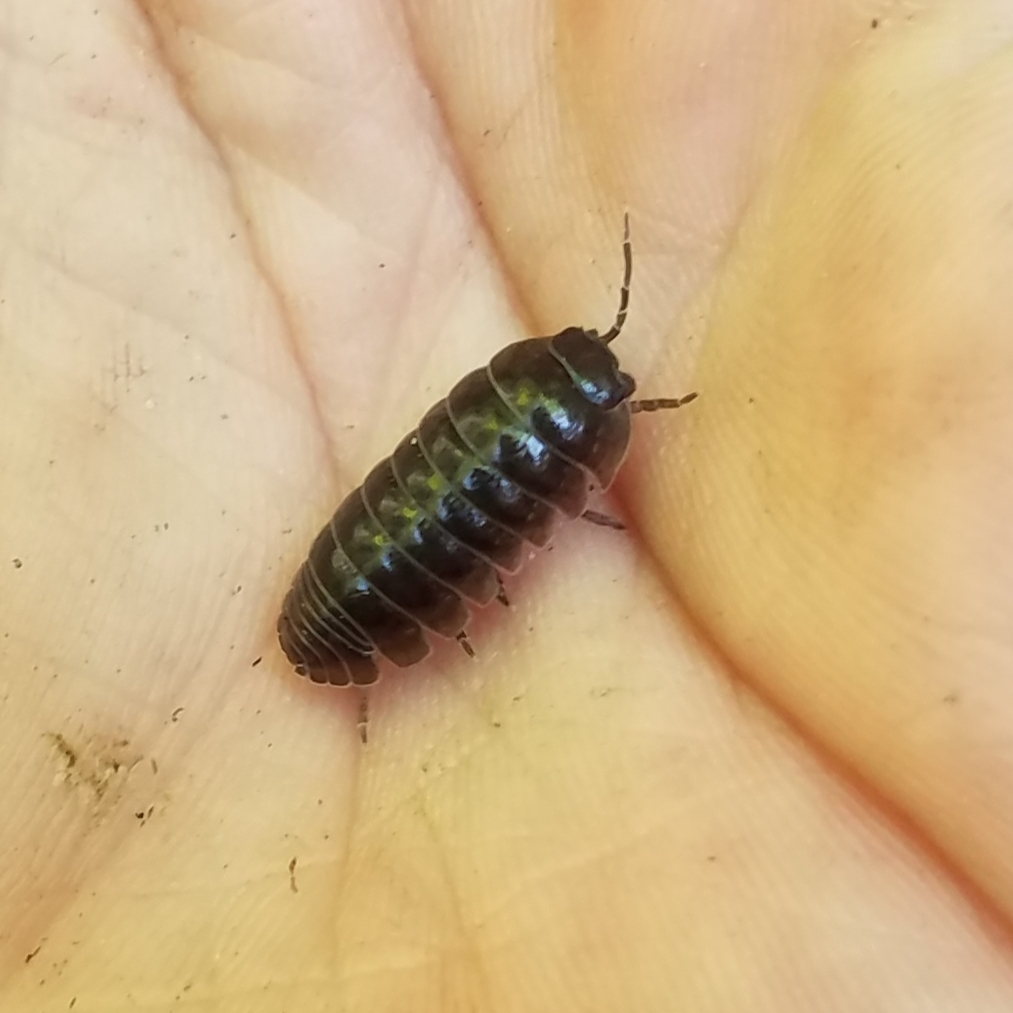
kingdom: Animalia
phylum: Arthropoda
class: Malacostraca
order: Isopoda
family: Armadillidiidae
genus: Armadillidium
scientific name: Armadillidium vulgare
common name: Common pill woodlouse
